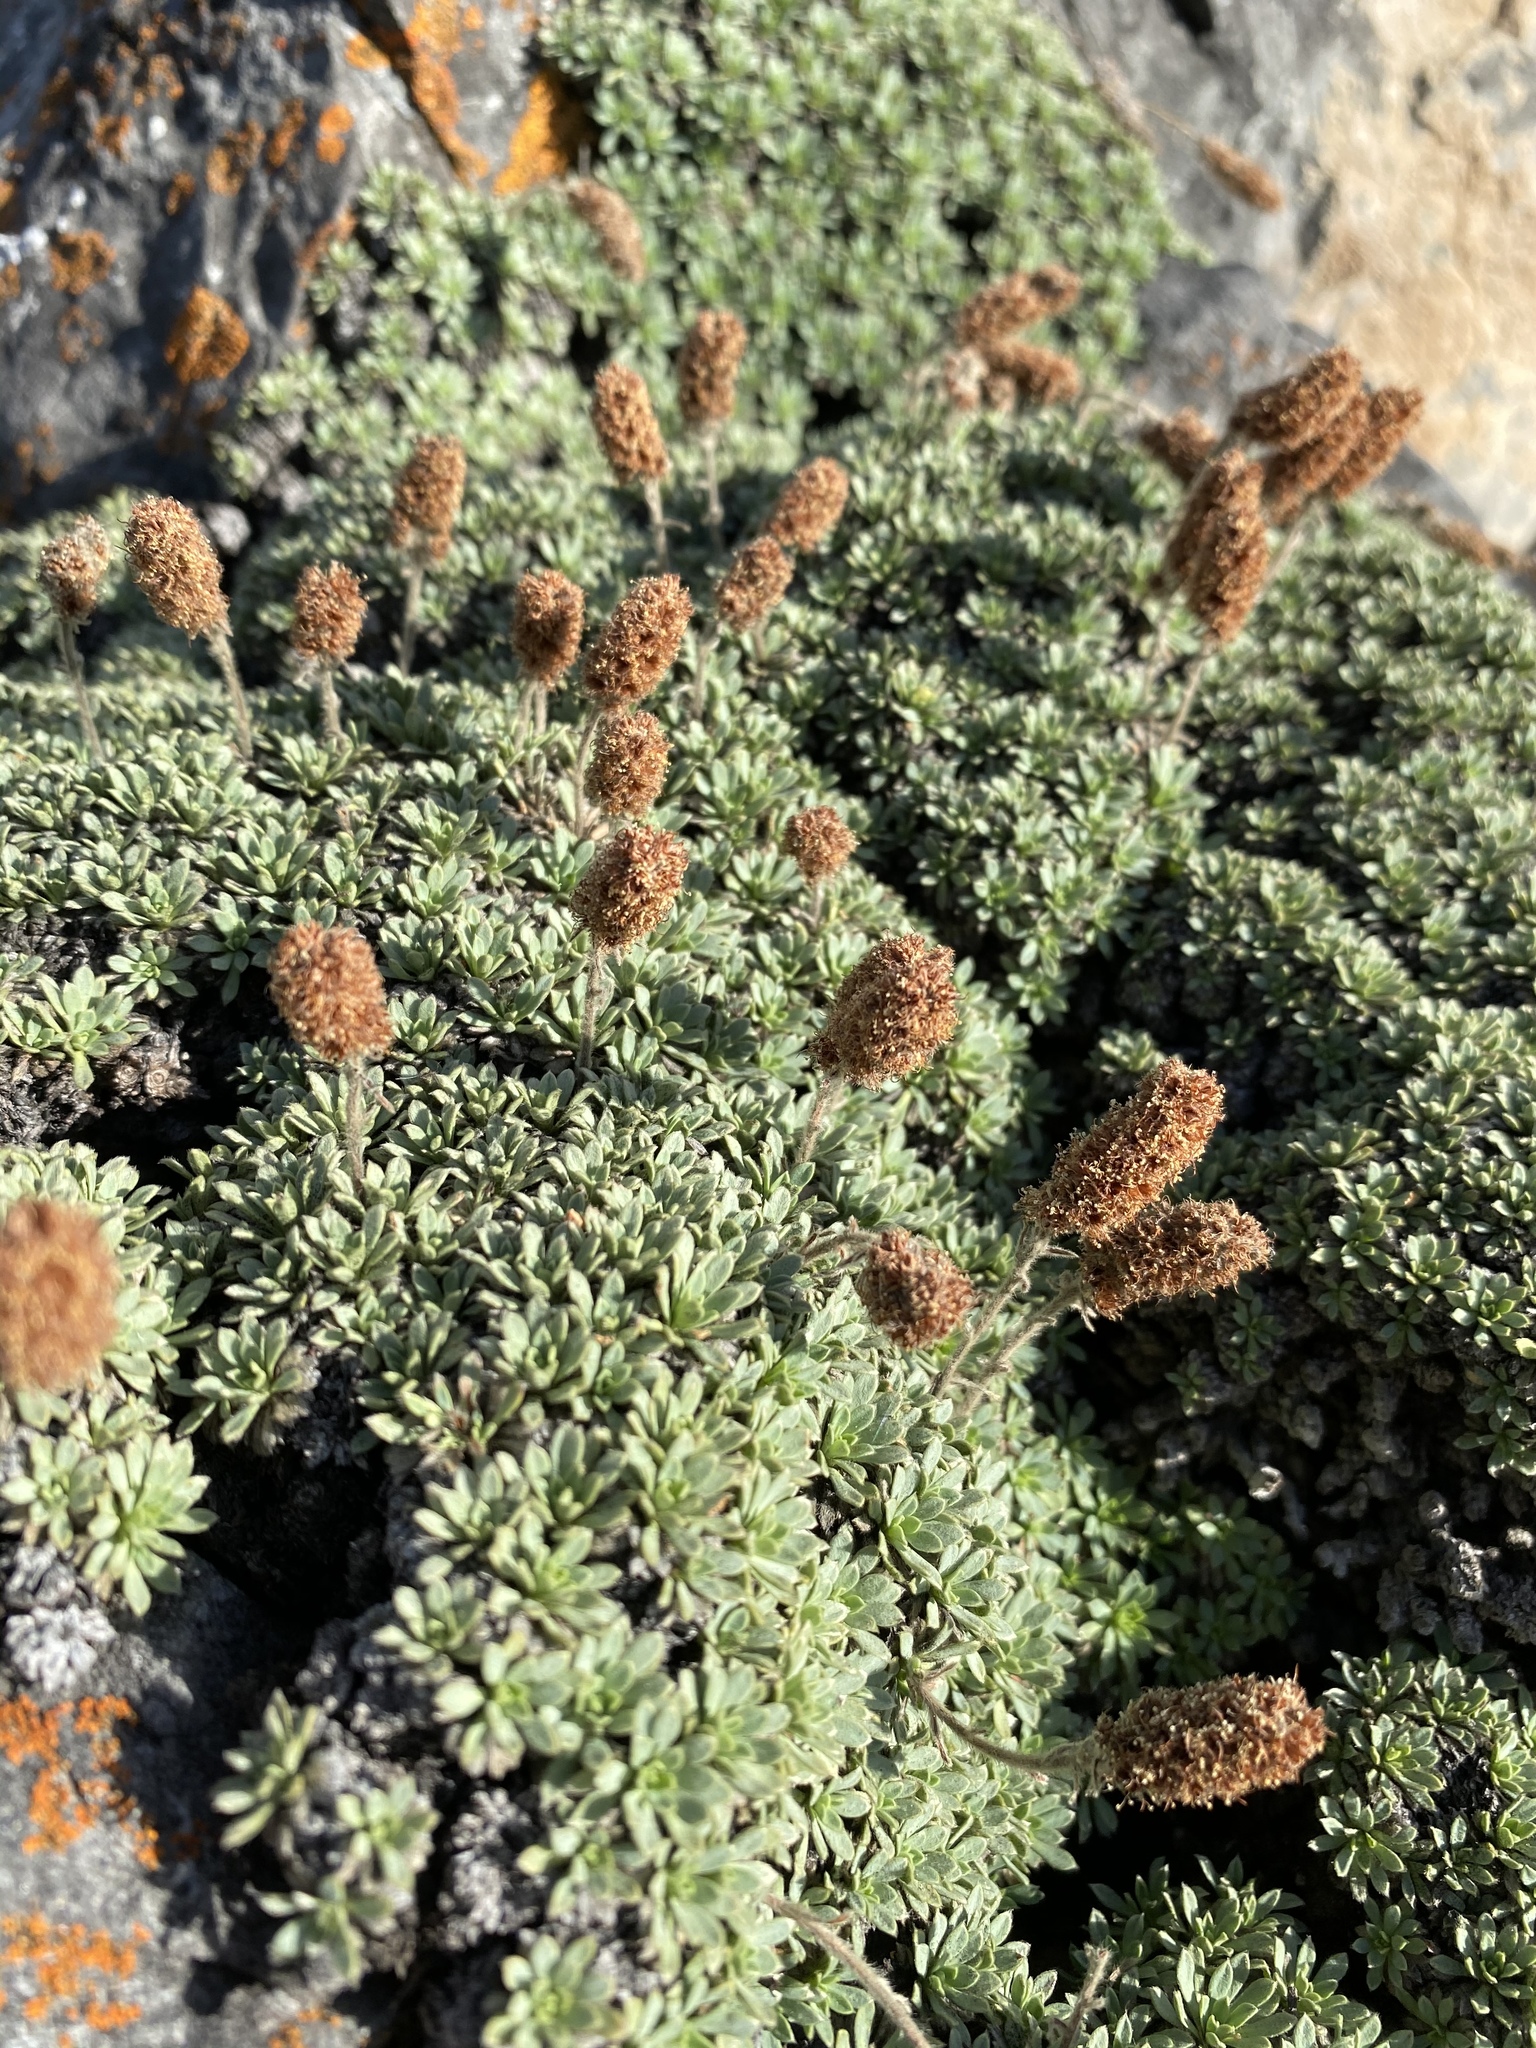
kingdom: Plantae
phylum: Tracheophyta
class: Magnoliopsida
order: Rosales
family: Rosaceae
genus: Petrophytum
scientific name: Petrophytum caespitosum
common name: Mat rockspirea
